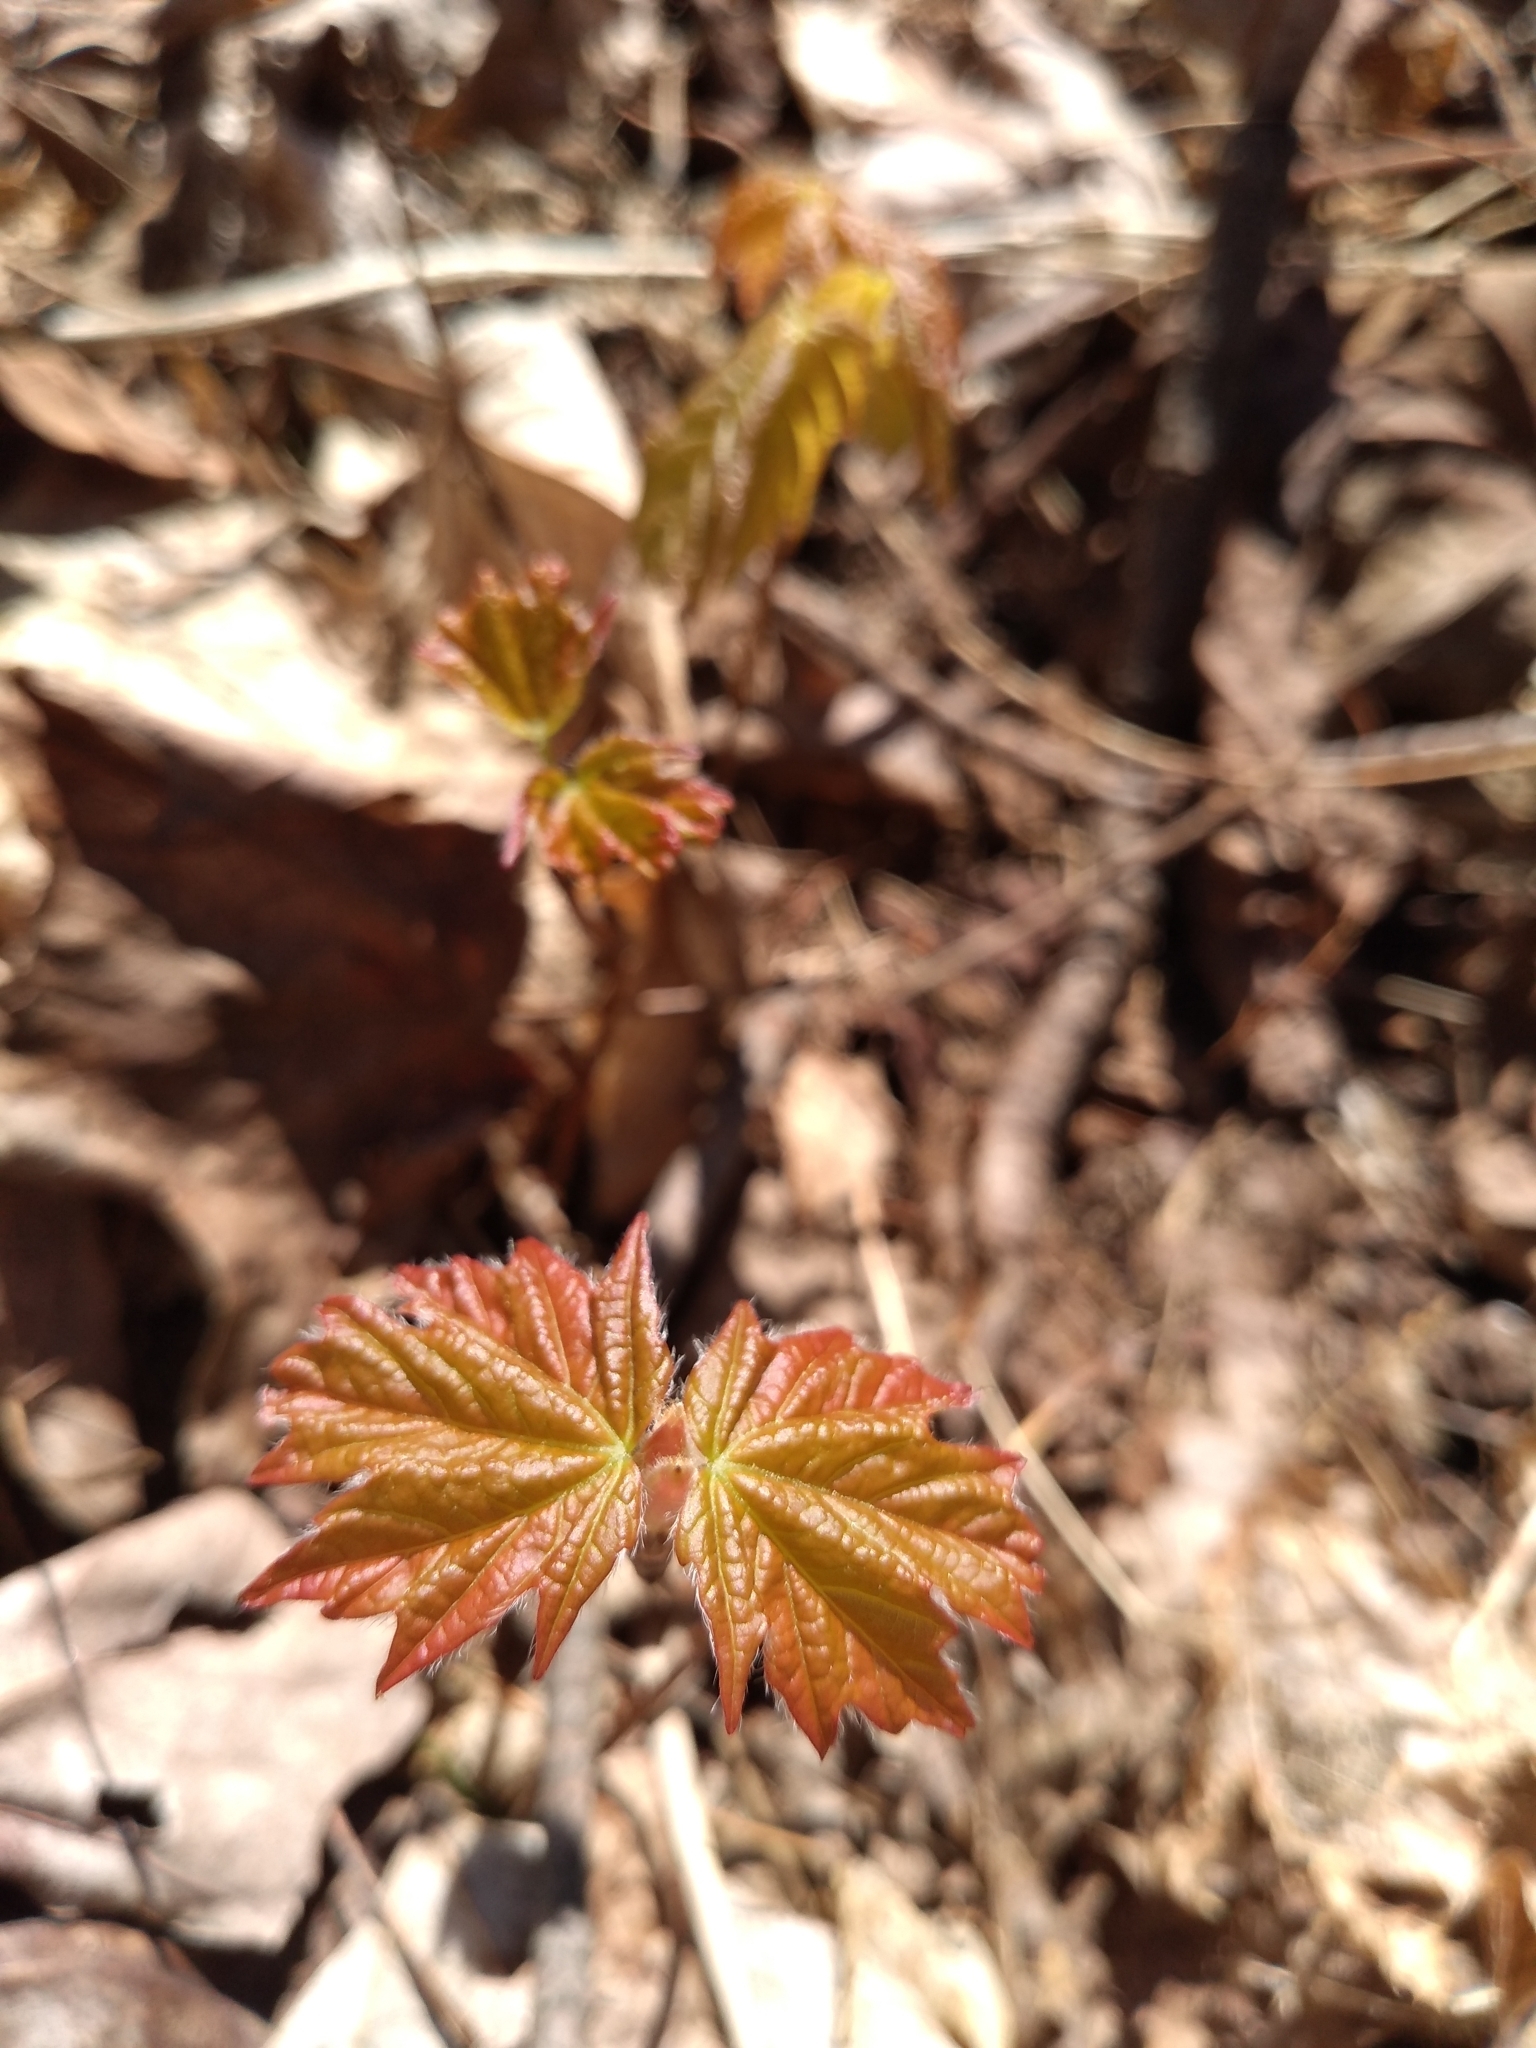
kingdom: Plantae
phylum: Tracheophyta
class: Magnoliopsida
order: Sapindales
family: Sapindaceae
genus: Acer
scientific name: Acer saccharum
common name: Sugar maple
